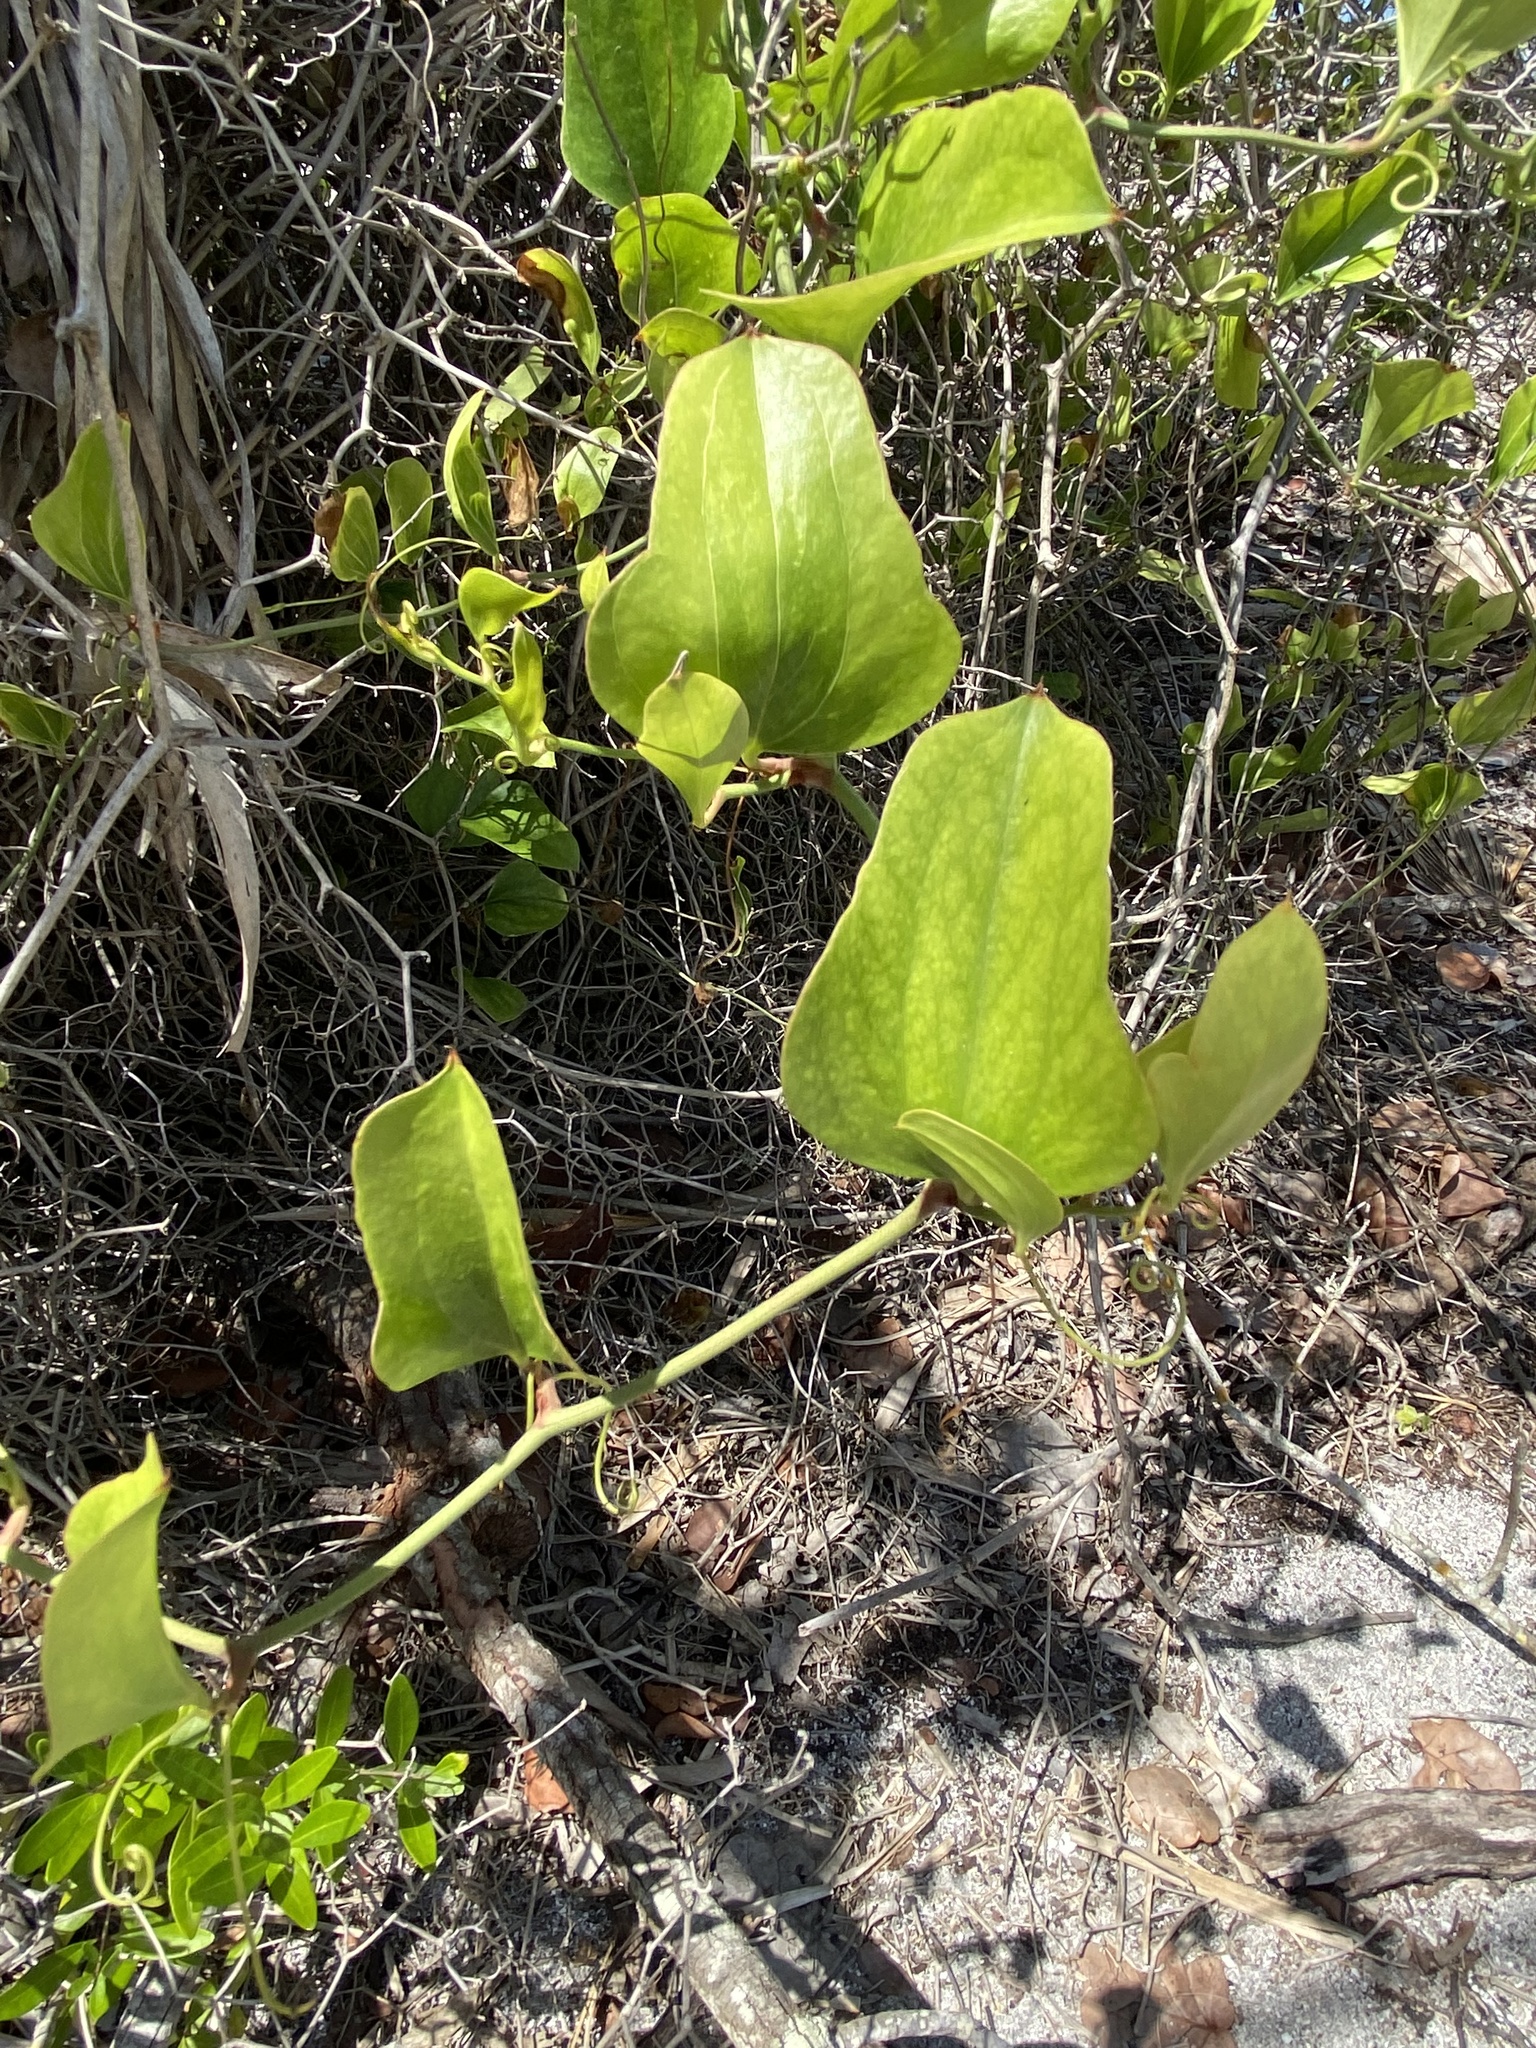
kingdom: Plantae
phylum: Tracheophyta
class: Liliopsida
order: Liliales
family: Smilacaceae
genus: Smilax
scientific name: Smilax auriculata
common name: Wild bamboo
